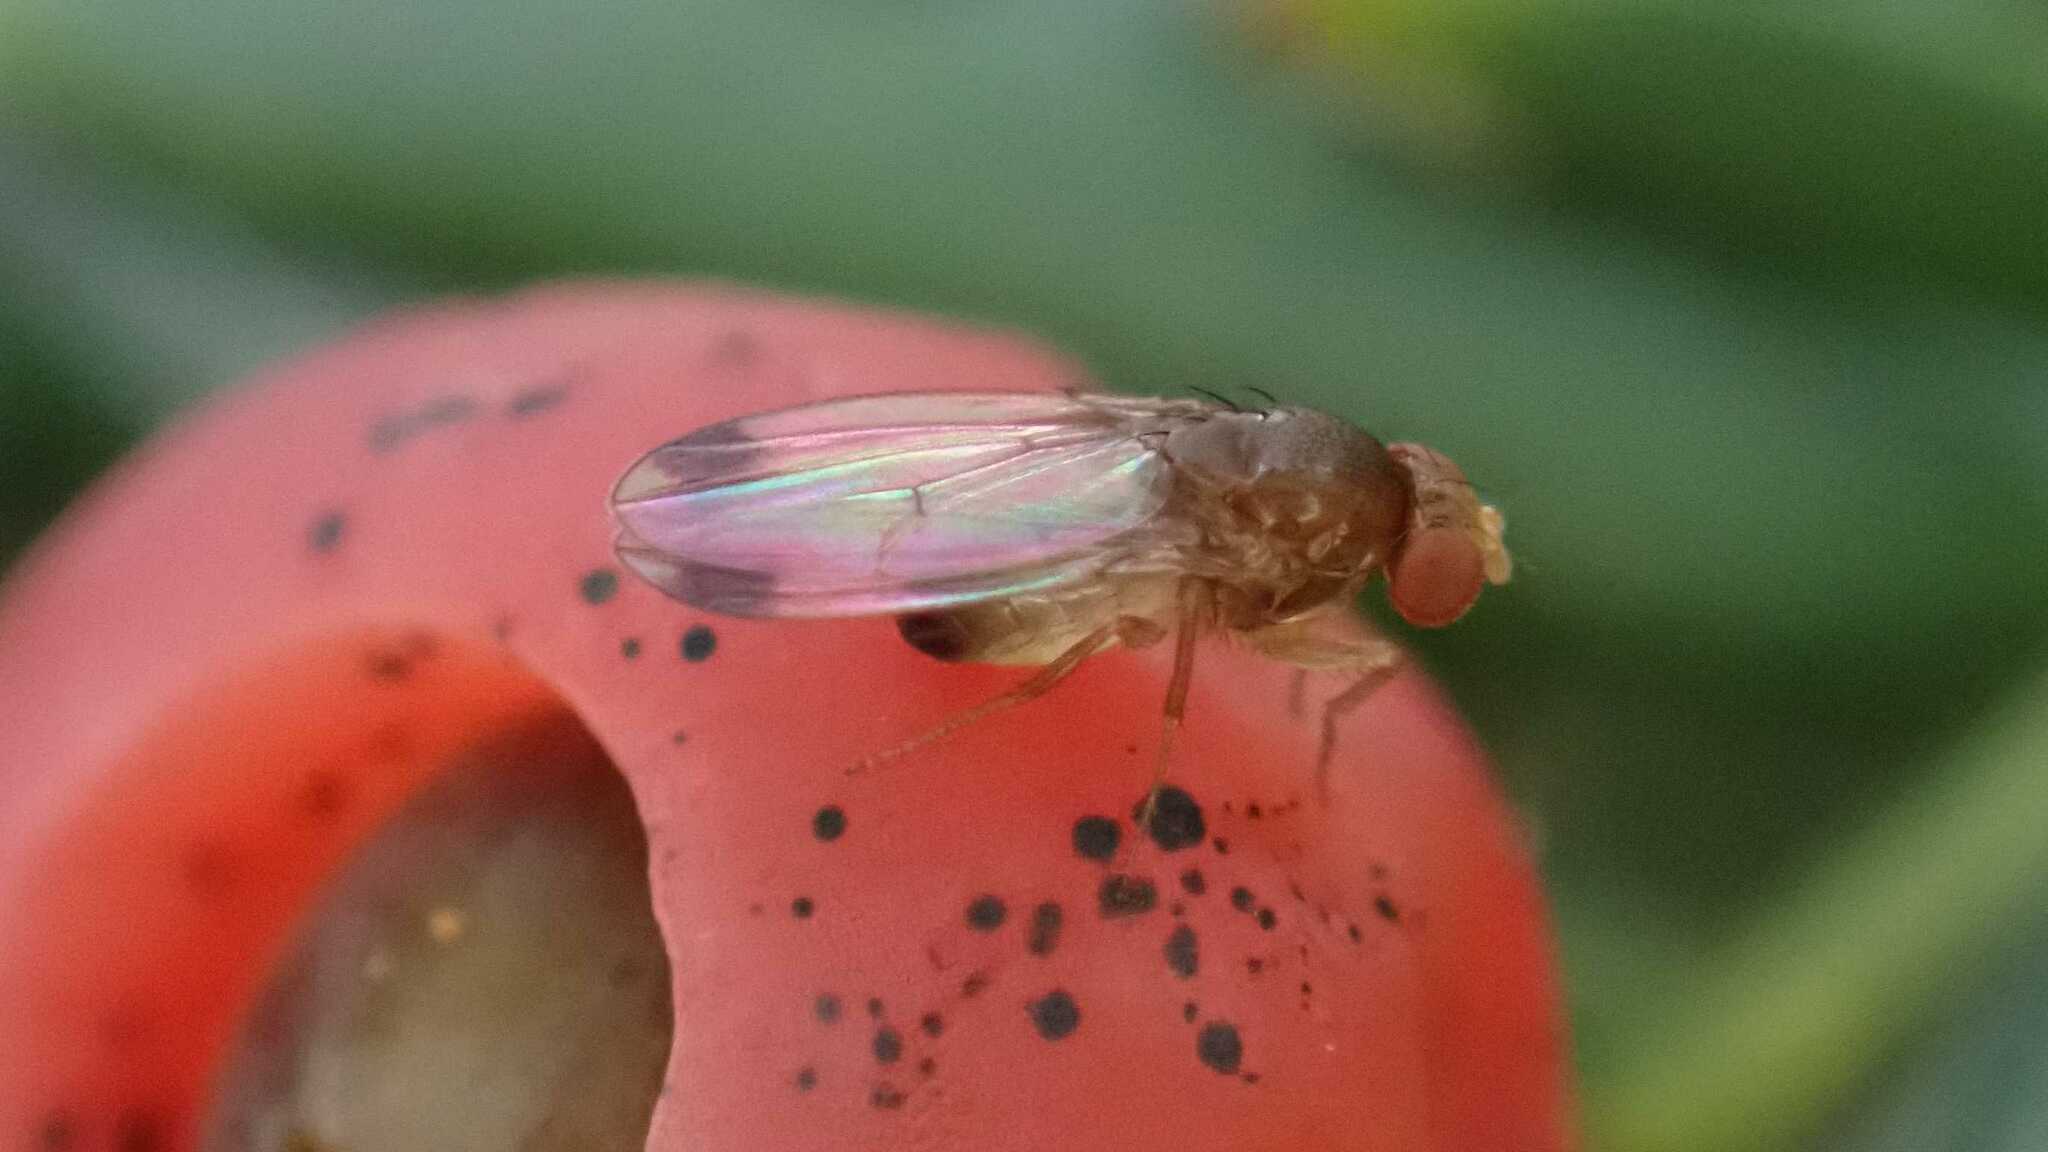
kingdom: Animalia
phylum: Arthropoda
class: Insecta
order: Diptera
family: Drosophilidae
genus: Drosophila
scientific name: Drosophila suzukii
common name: Spotted-wing drosophila
